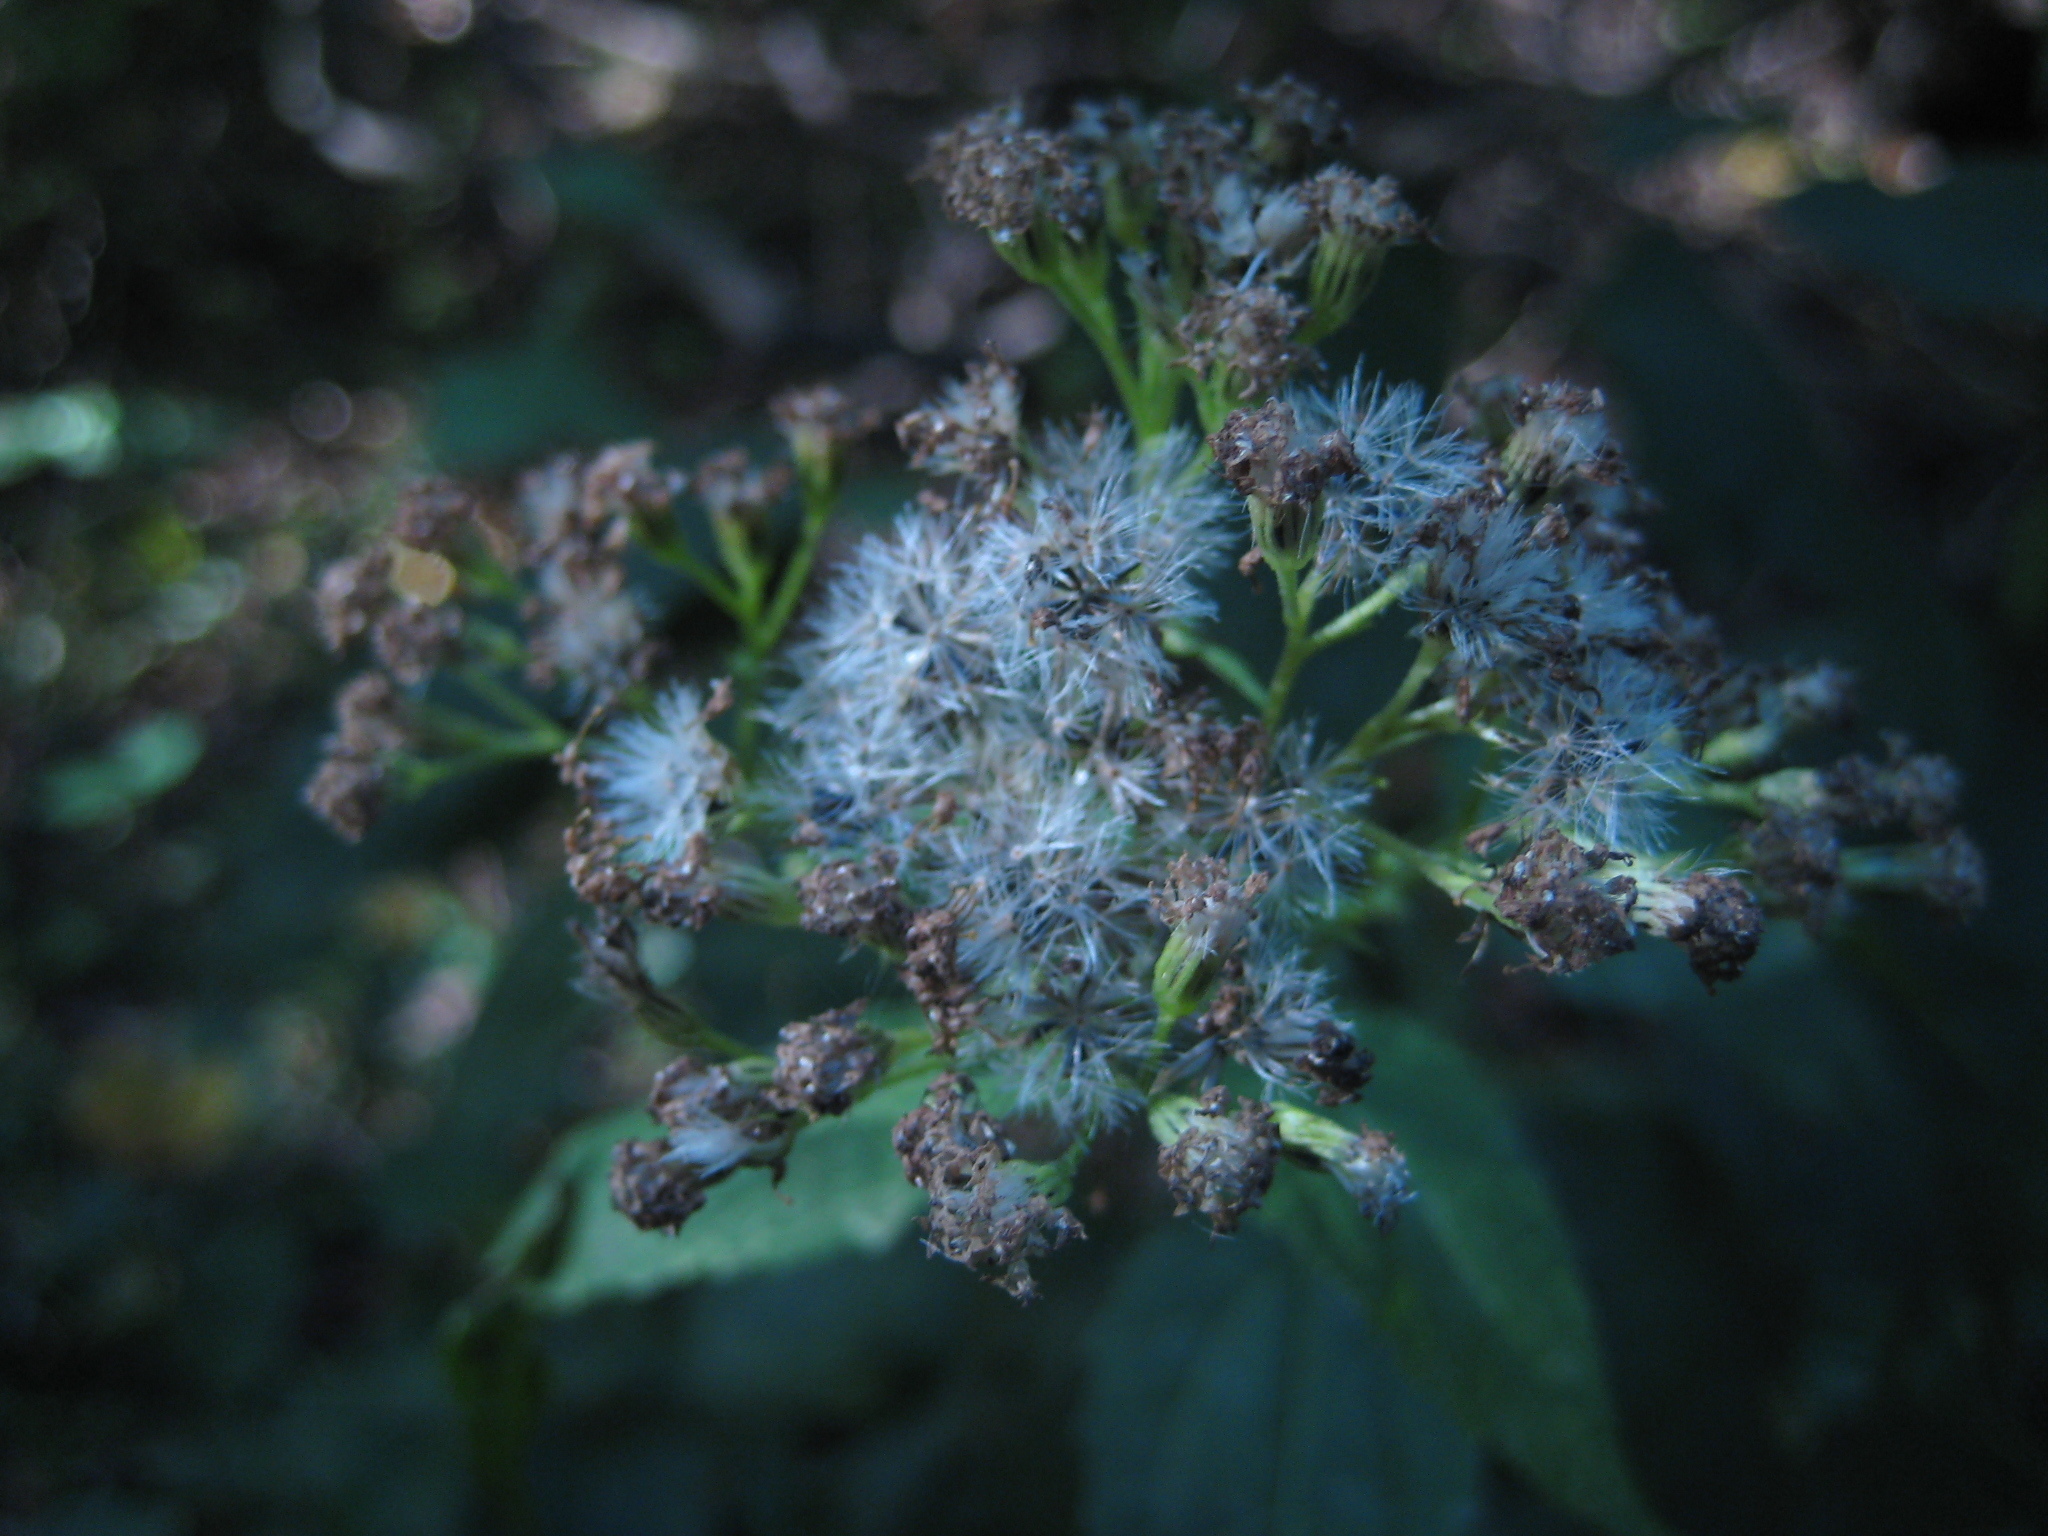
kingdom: Plantae
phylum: Tracheophyta
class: Magnoliopsida
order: Asterales
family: Asteraceae
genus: Ageratina
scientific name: Ageratina altissima
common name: White snakeroot
